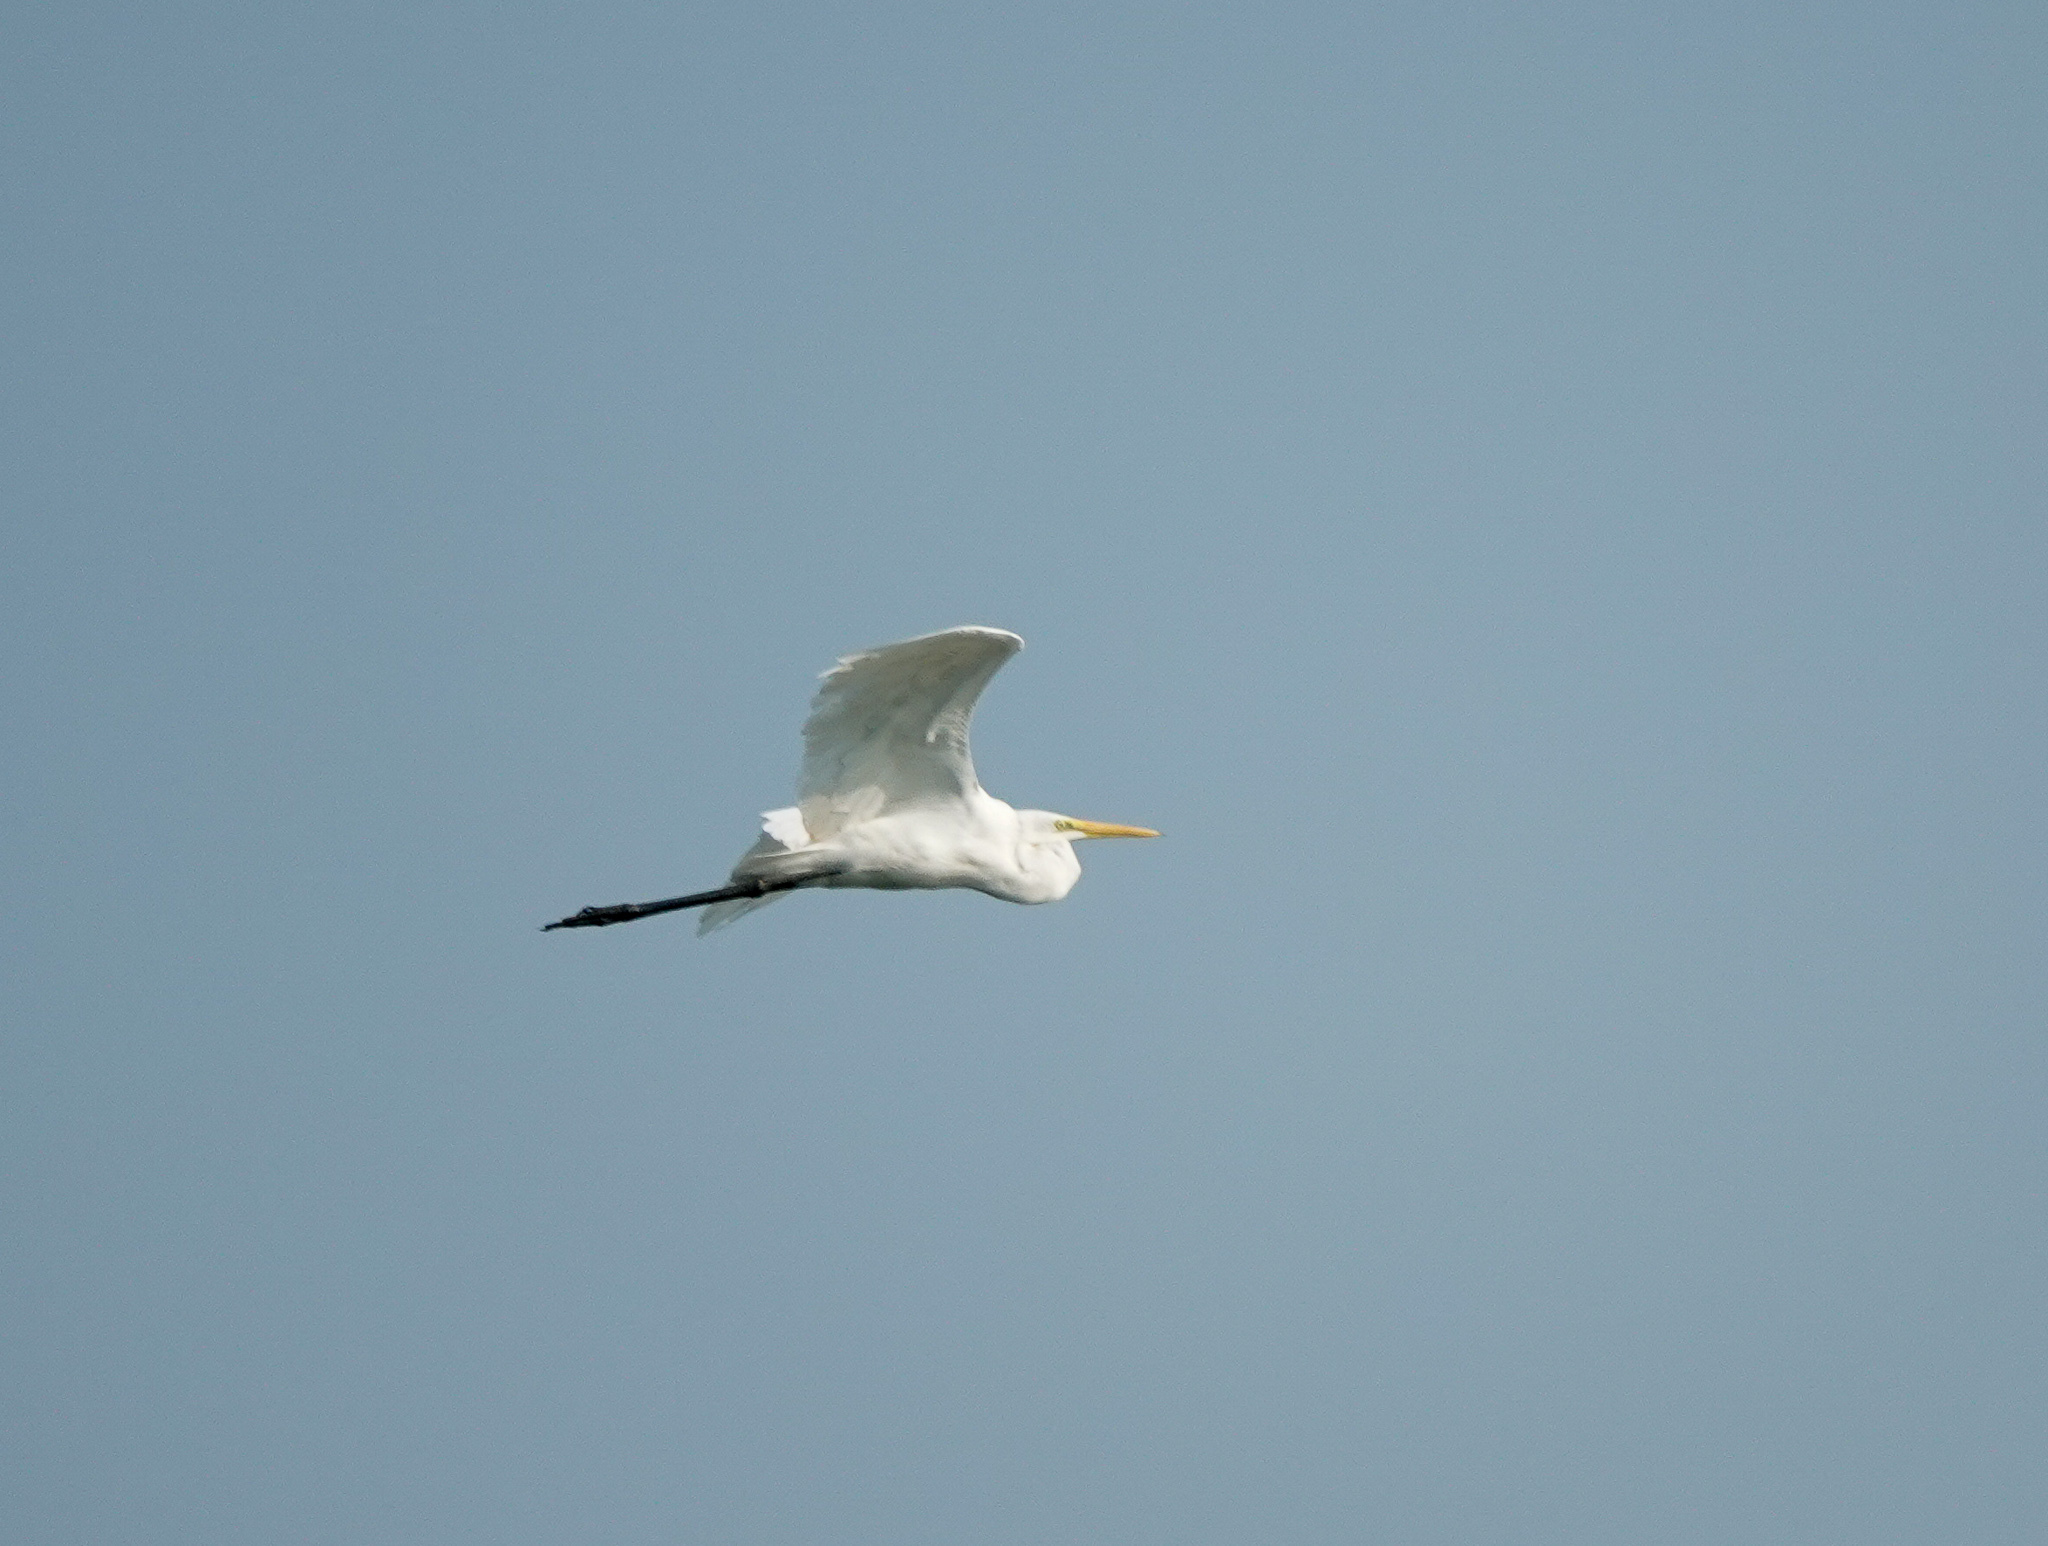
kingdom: Animalia
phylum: Chordata
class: Aves
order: Pelecaniformes
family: Ardeidae
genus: Bubulcus
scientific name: Bubulcus coromandus
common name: Eastern cattle egret
